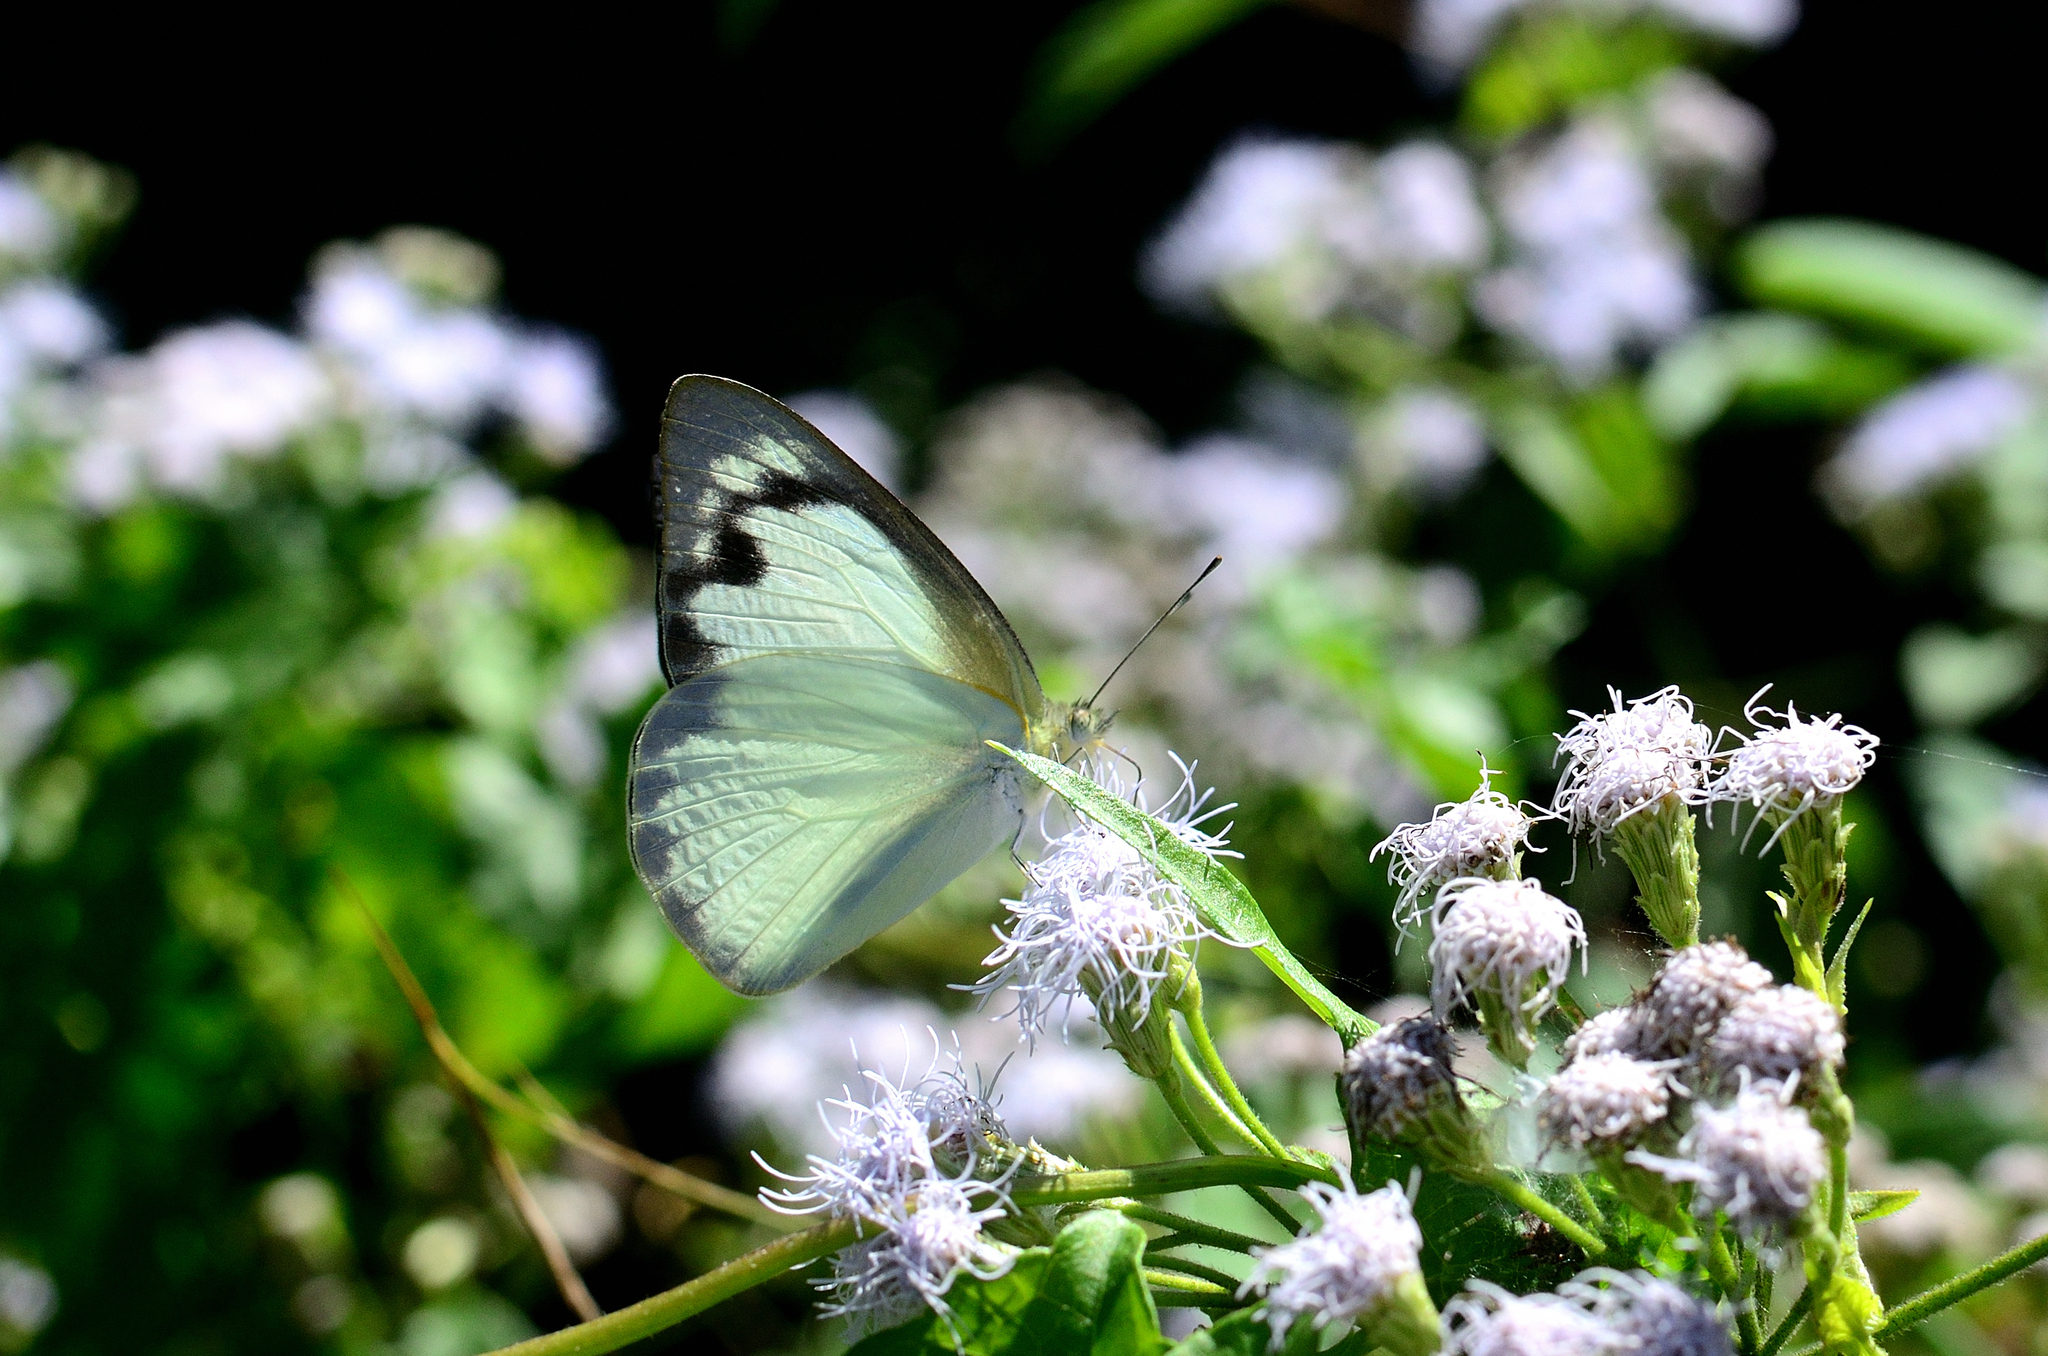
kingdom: Animalia
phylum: Arthropoda
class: Insecta
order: Lepidoptera
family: Pieridae
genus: Appias
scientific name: Appias albina
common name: Common albatross
